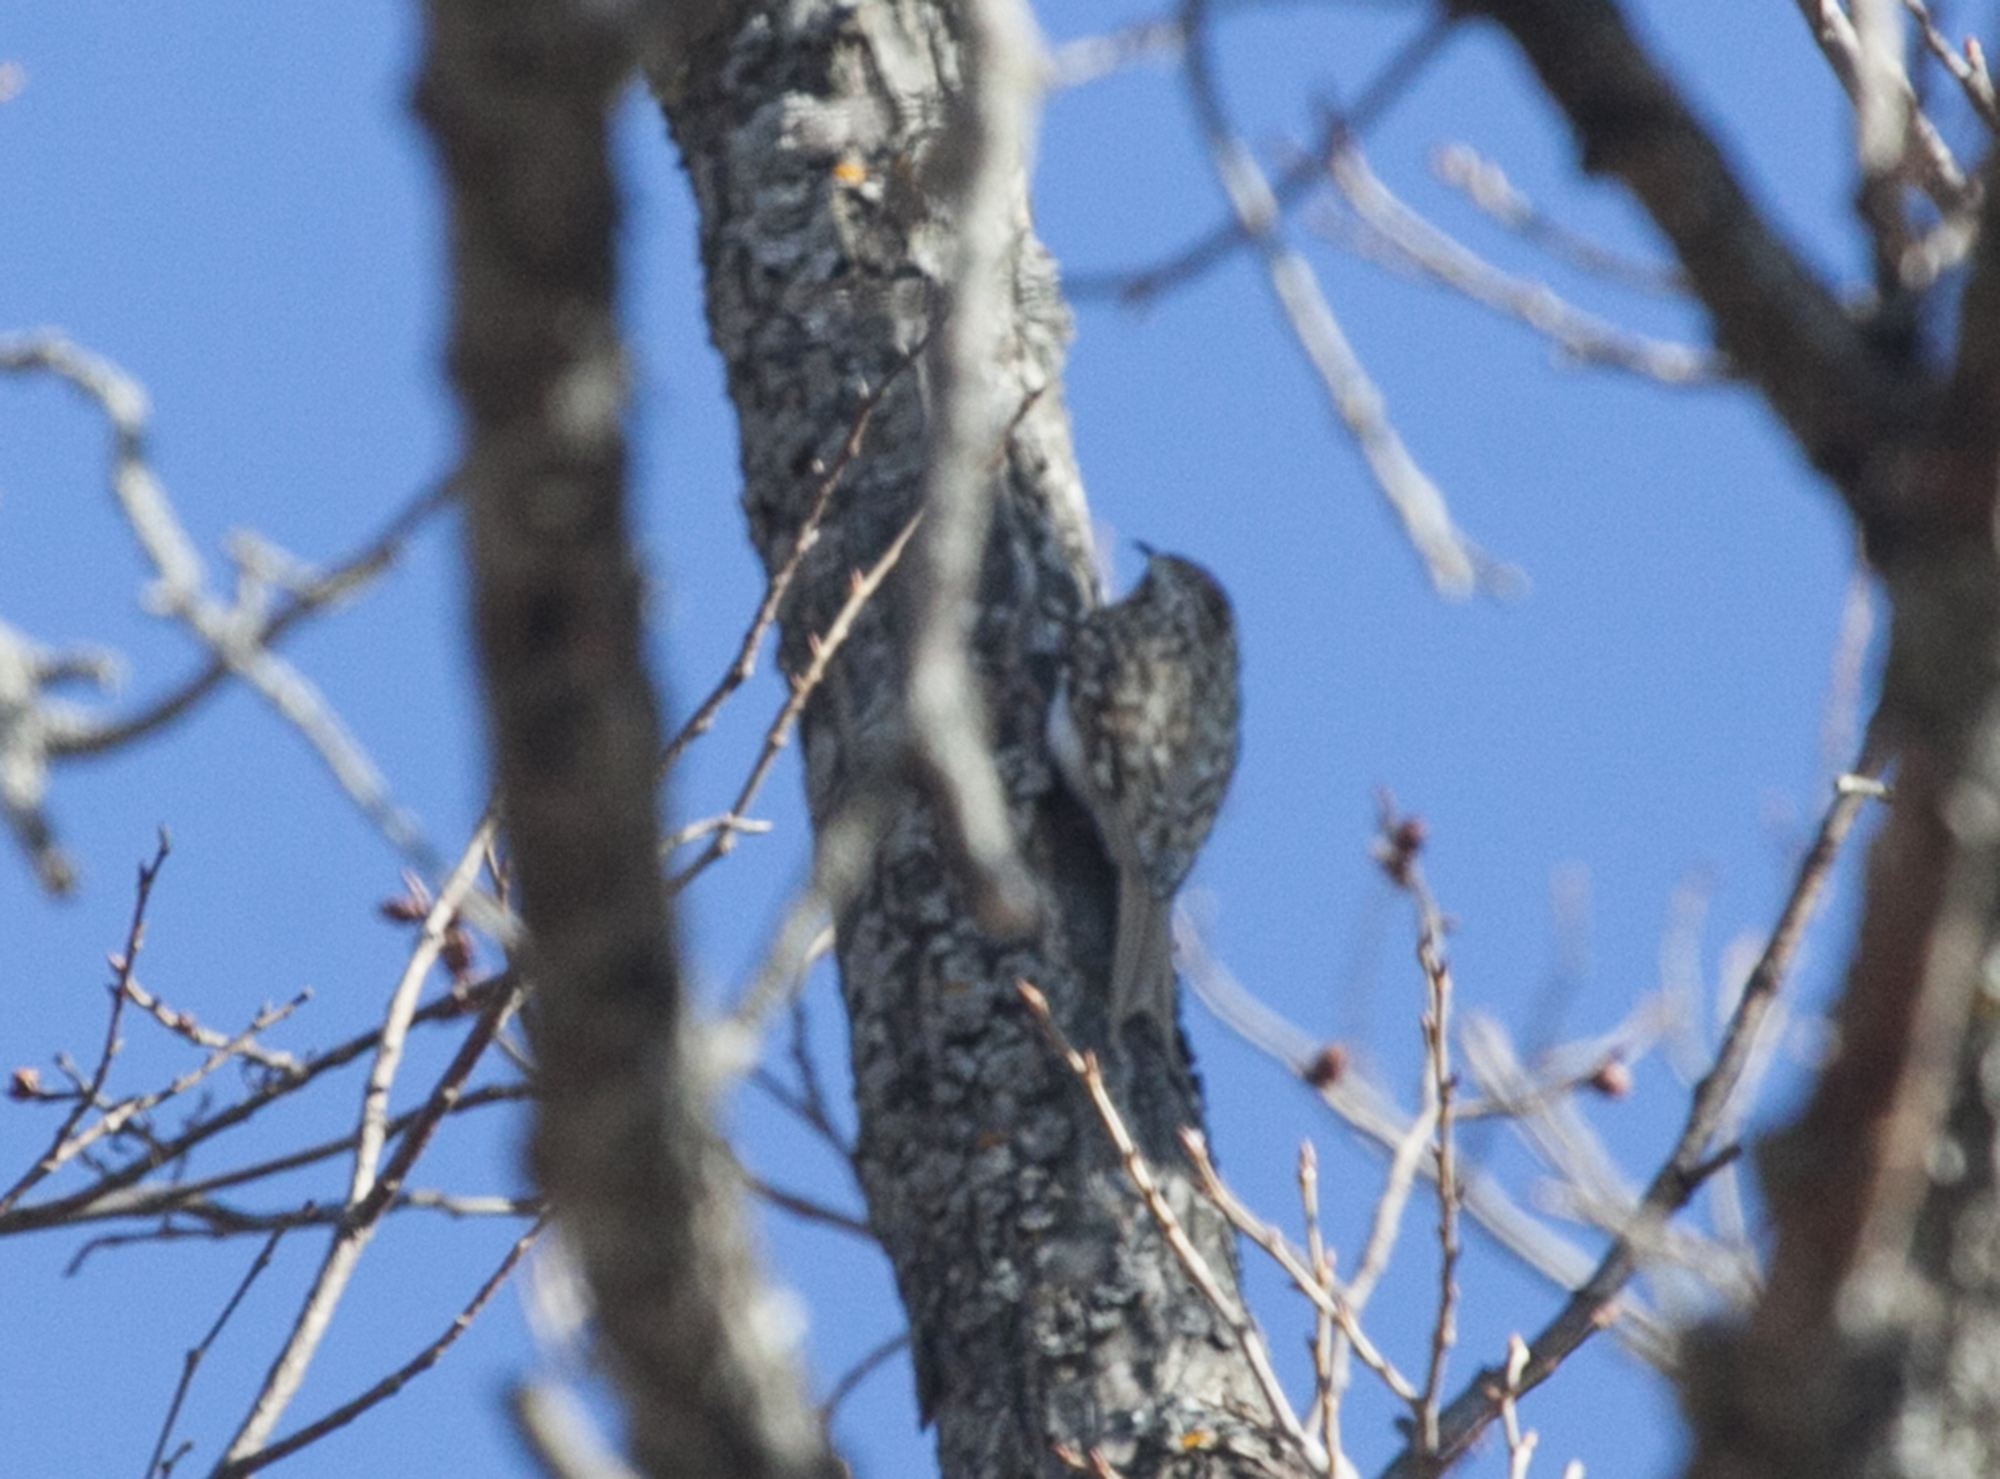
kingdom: Animalia
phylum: Chordata
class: Aves
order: Passeriformes
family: Certhiidae
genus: Certhia
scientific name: Certhia familiaris
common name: Eurasian treecreeper
